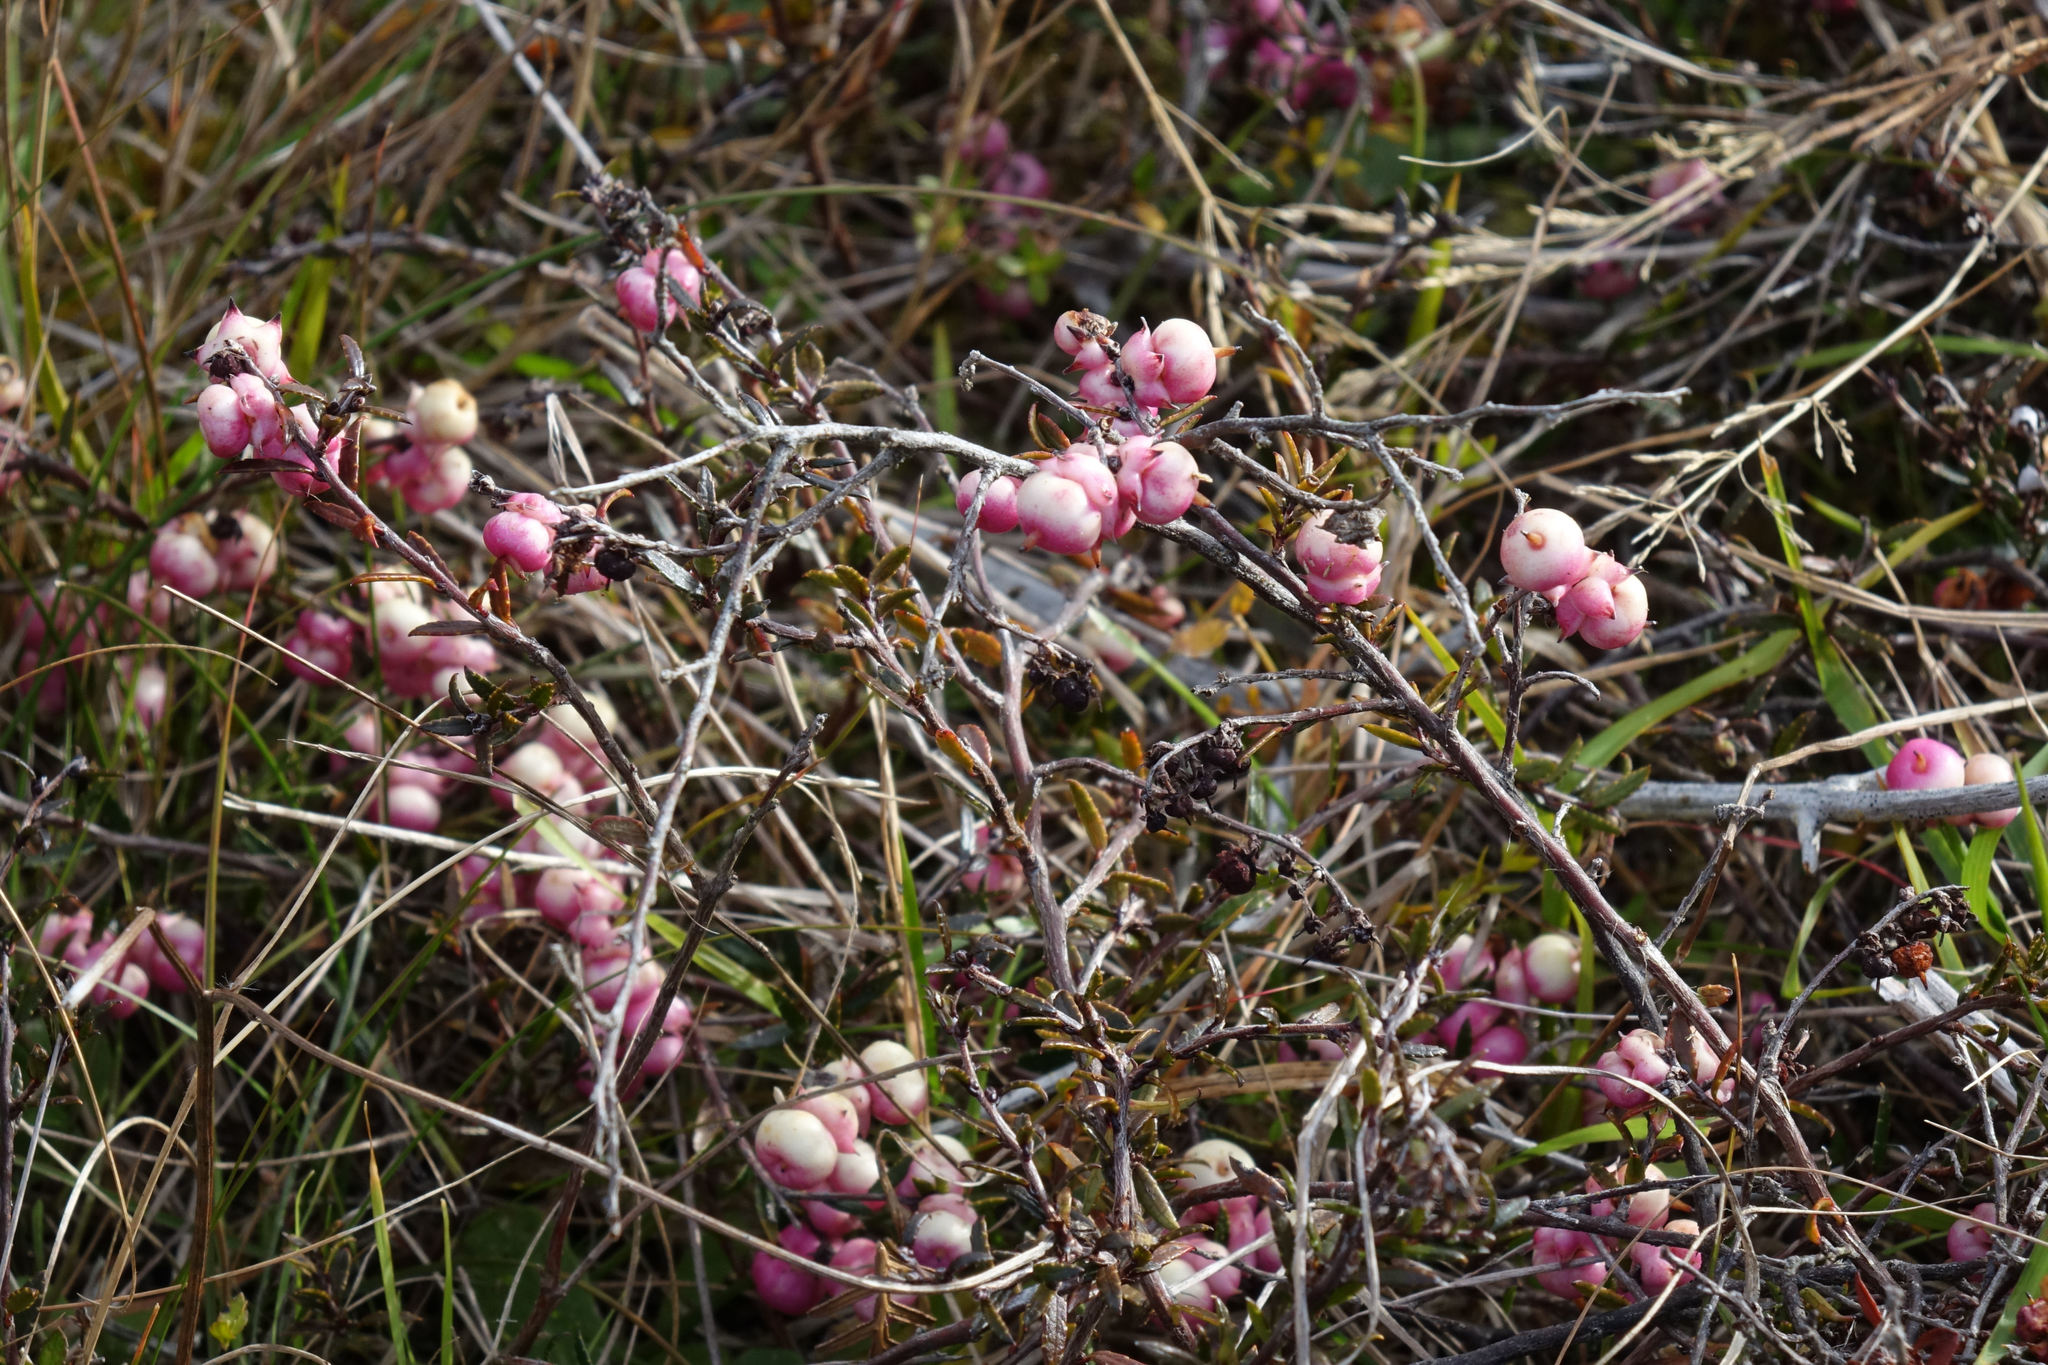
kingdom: Plantae
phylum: Tracheophyta
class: Magnoliopsida
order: Ericales
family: Ericaceae
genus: Gaultheria
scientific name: Gaultheria macrostigma
